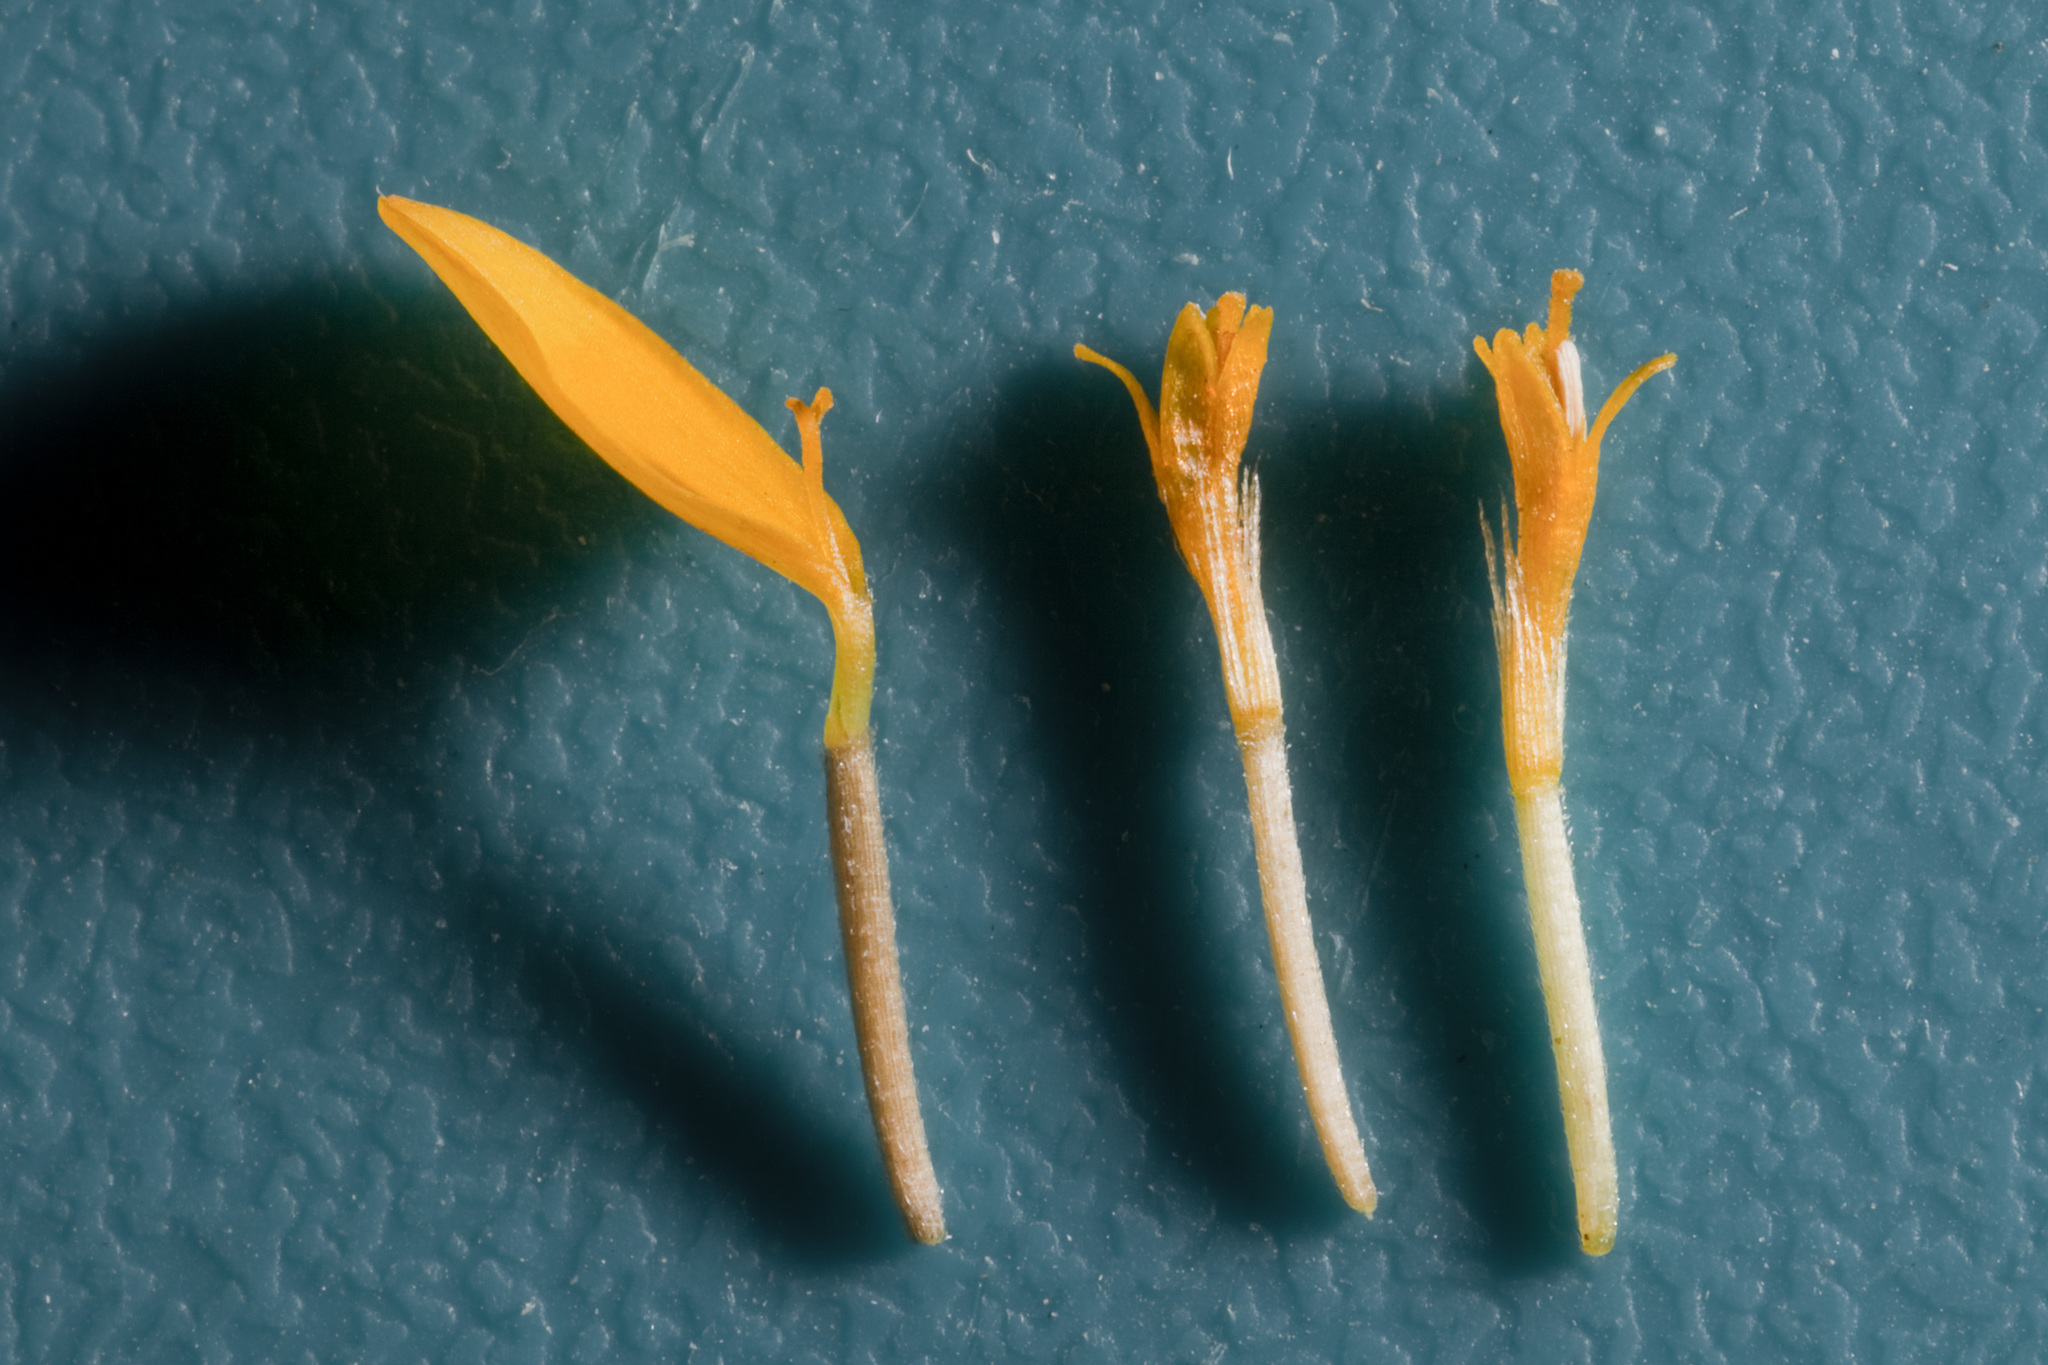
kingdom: Plantae
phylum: Tracheophyta
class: Magnoliopsida
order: Asterales
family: Asteraceae
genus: Pectis
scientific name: Pectis papposa
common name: Many-bristle chinchweed
